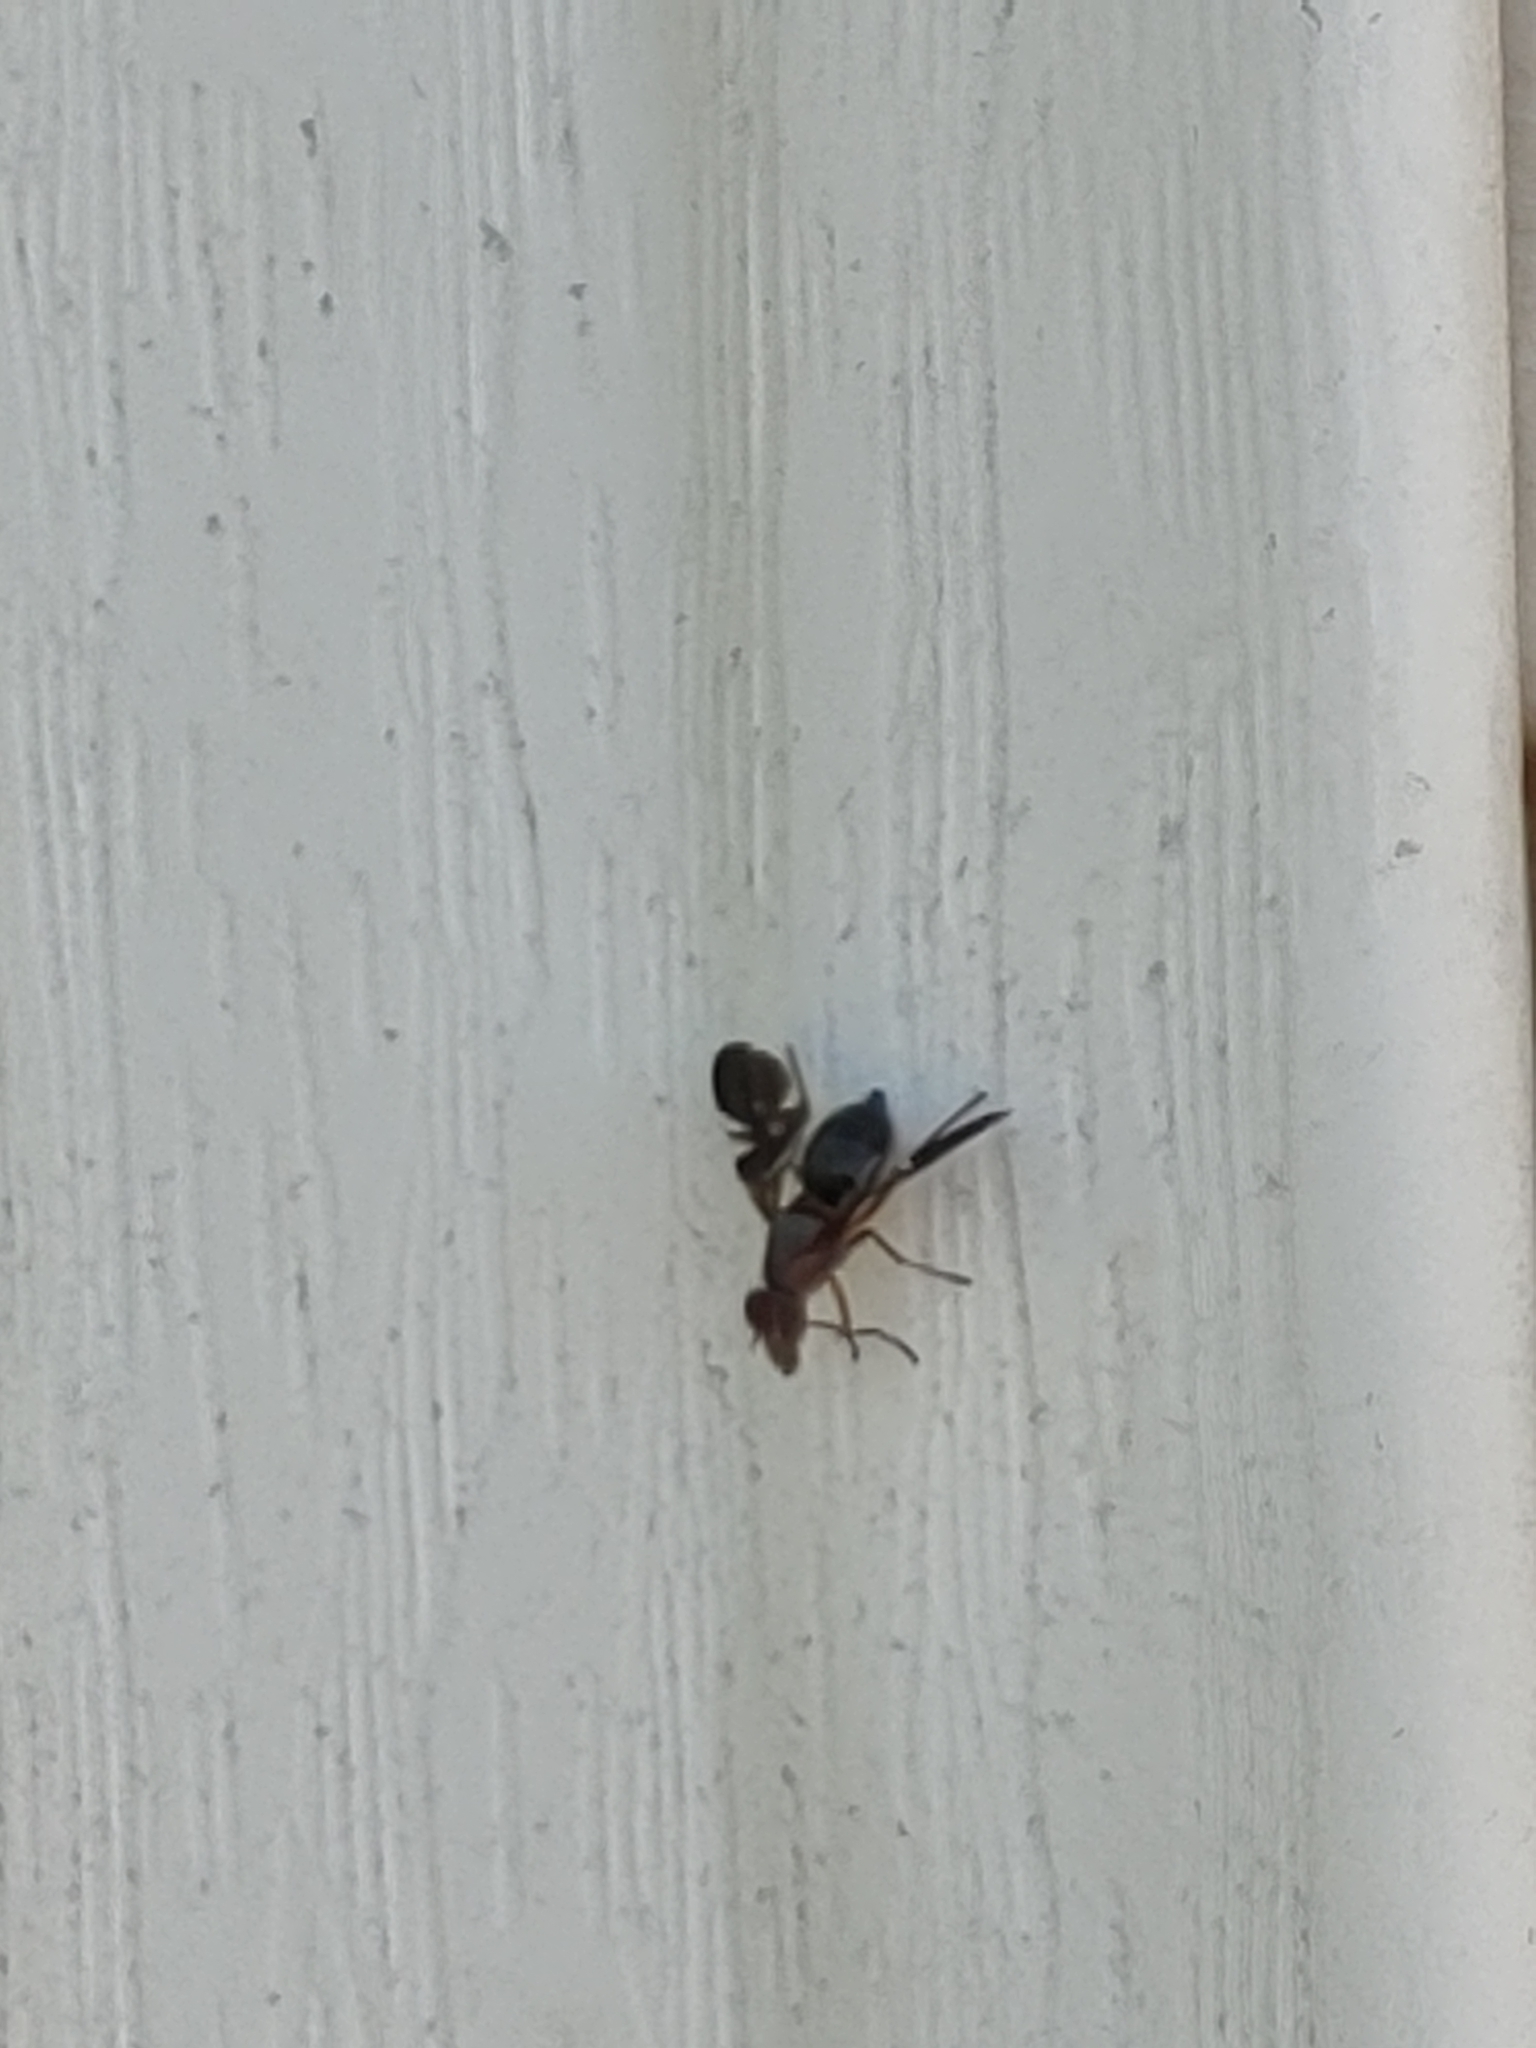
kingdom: Animalia
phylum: Arthropoda
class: Insecta
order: Diptera
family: Ulidiidae
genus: Delphinia
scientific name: Delphinia picta
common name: Common picture-winged fly
